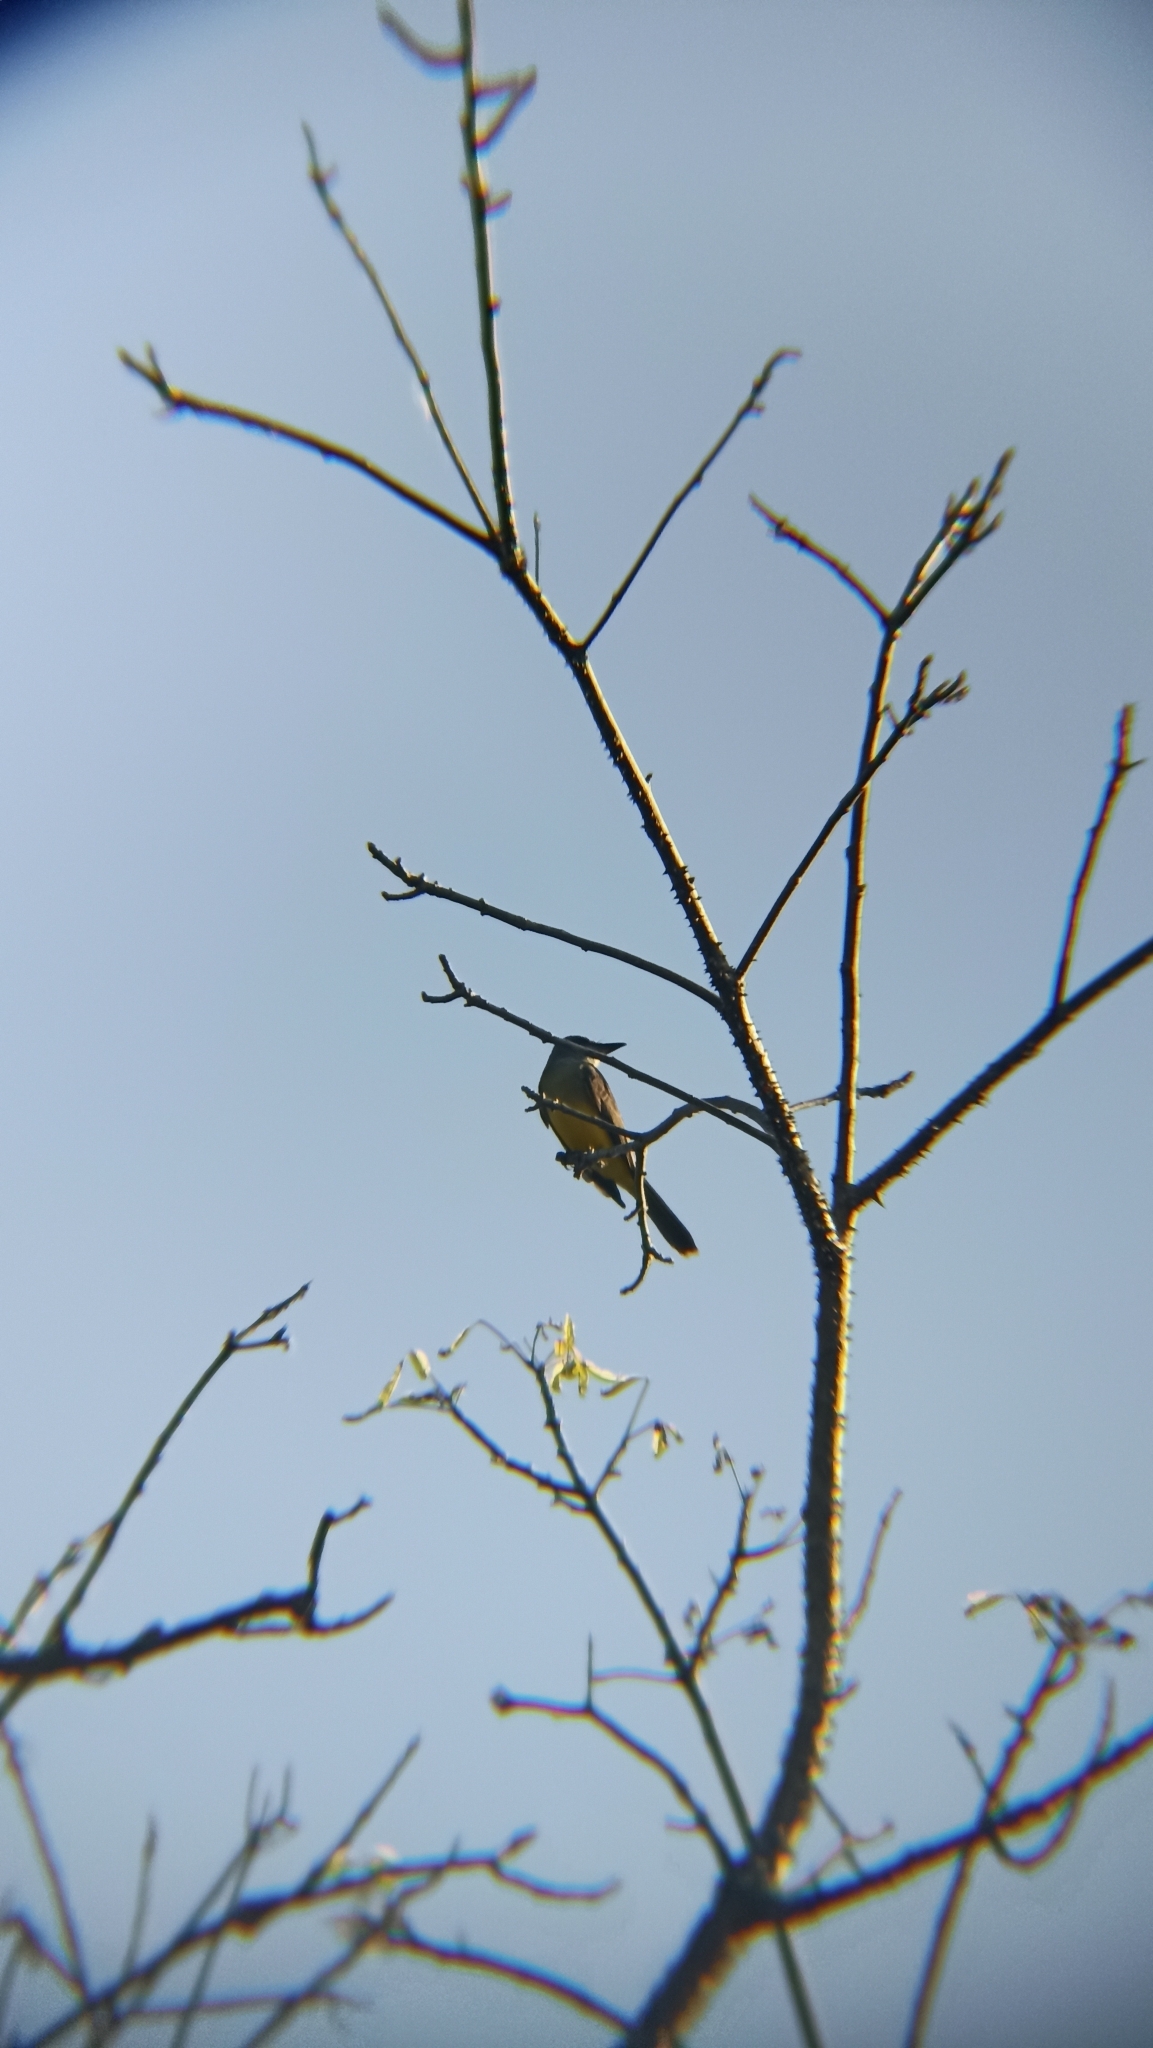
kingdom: Animalia
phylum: Chordata
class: Aves
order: Passeriformes
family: Tyrannidae
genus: Tyrannus
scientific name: Tyrannus melancholicus
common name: Tropical kingbird
